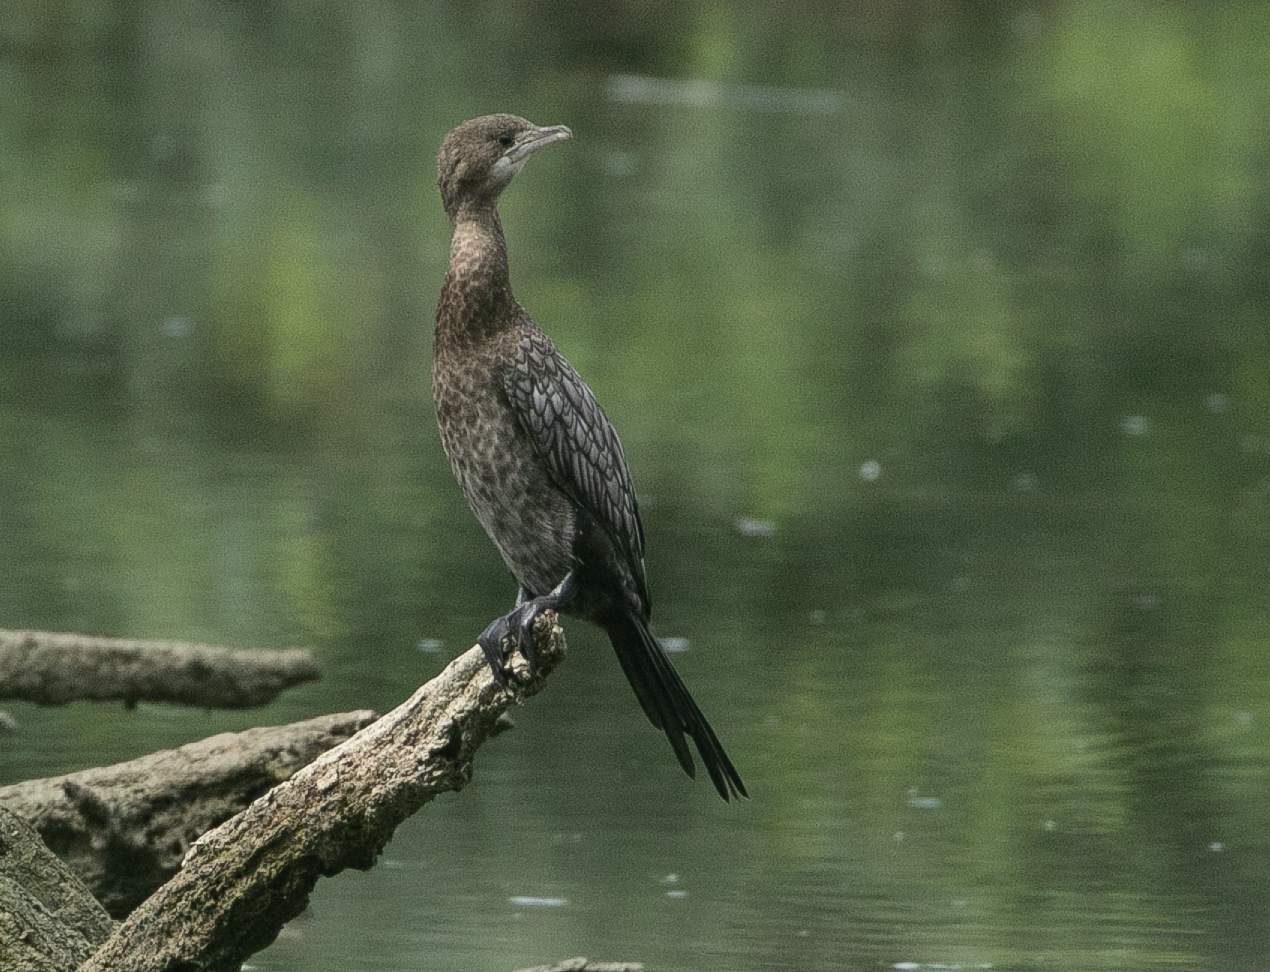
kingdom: Animalia
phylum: Chordata
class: Aves
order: Suliformes
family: Phalacrocoracidae
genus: Microcarbo
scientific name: Microcarbo pygmaeus
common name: Pygmy cormorant
